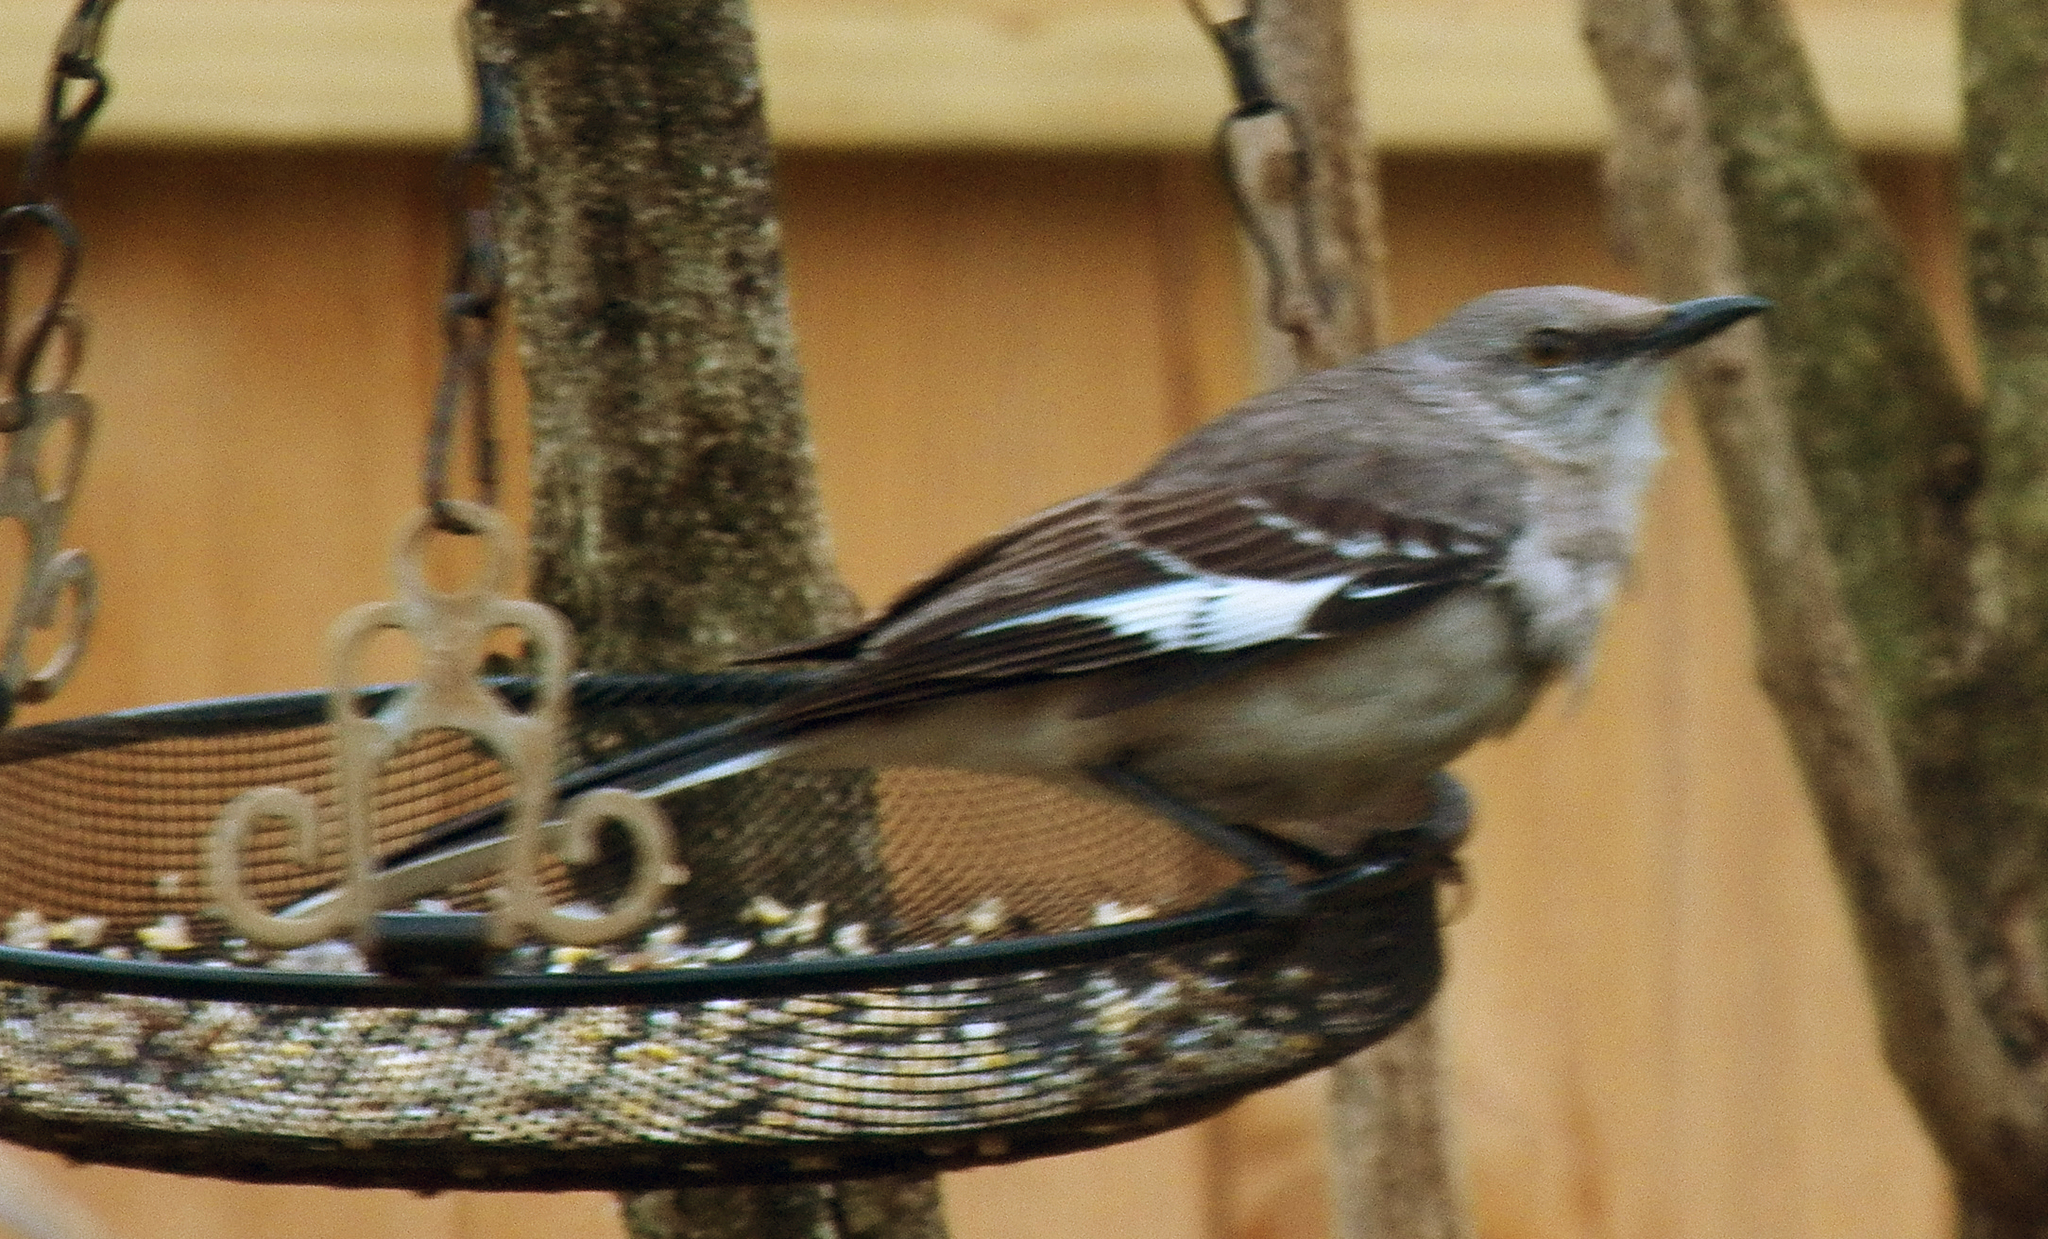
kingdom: Animalia
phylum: Chordata
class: Aves
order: Passeriformes
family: Mimidae
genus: Mimus
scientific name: Mimus polyglottos
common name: Northern mockingbird
